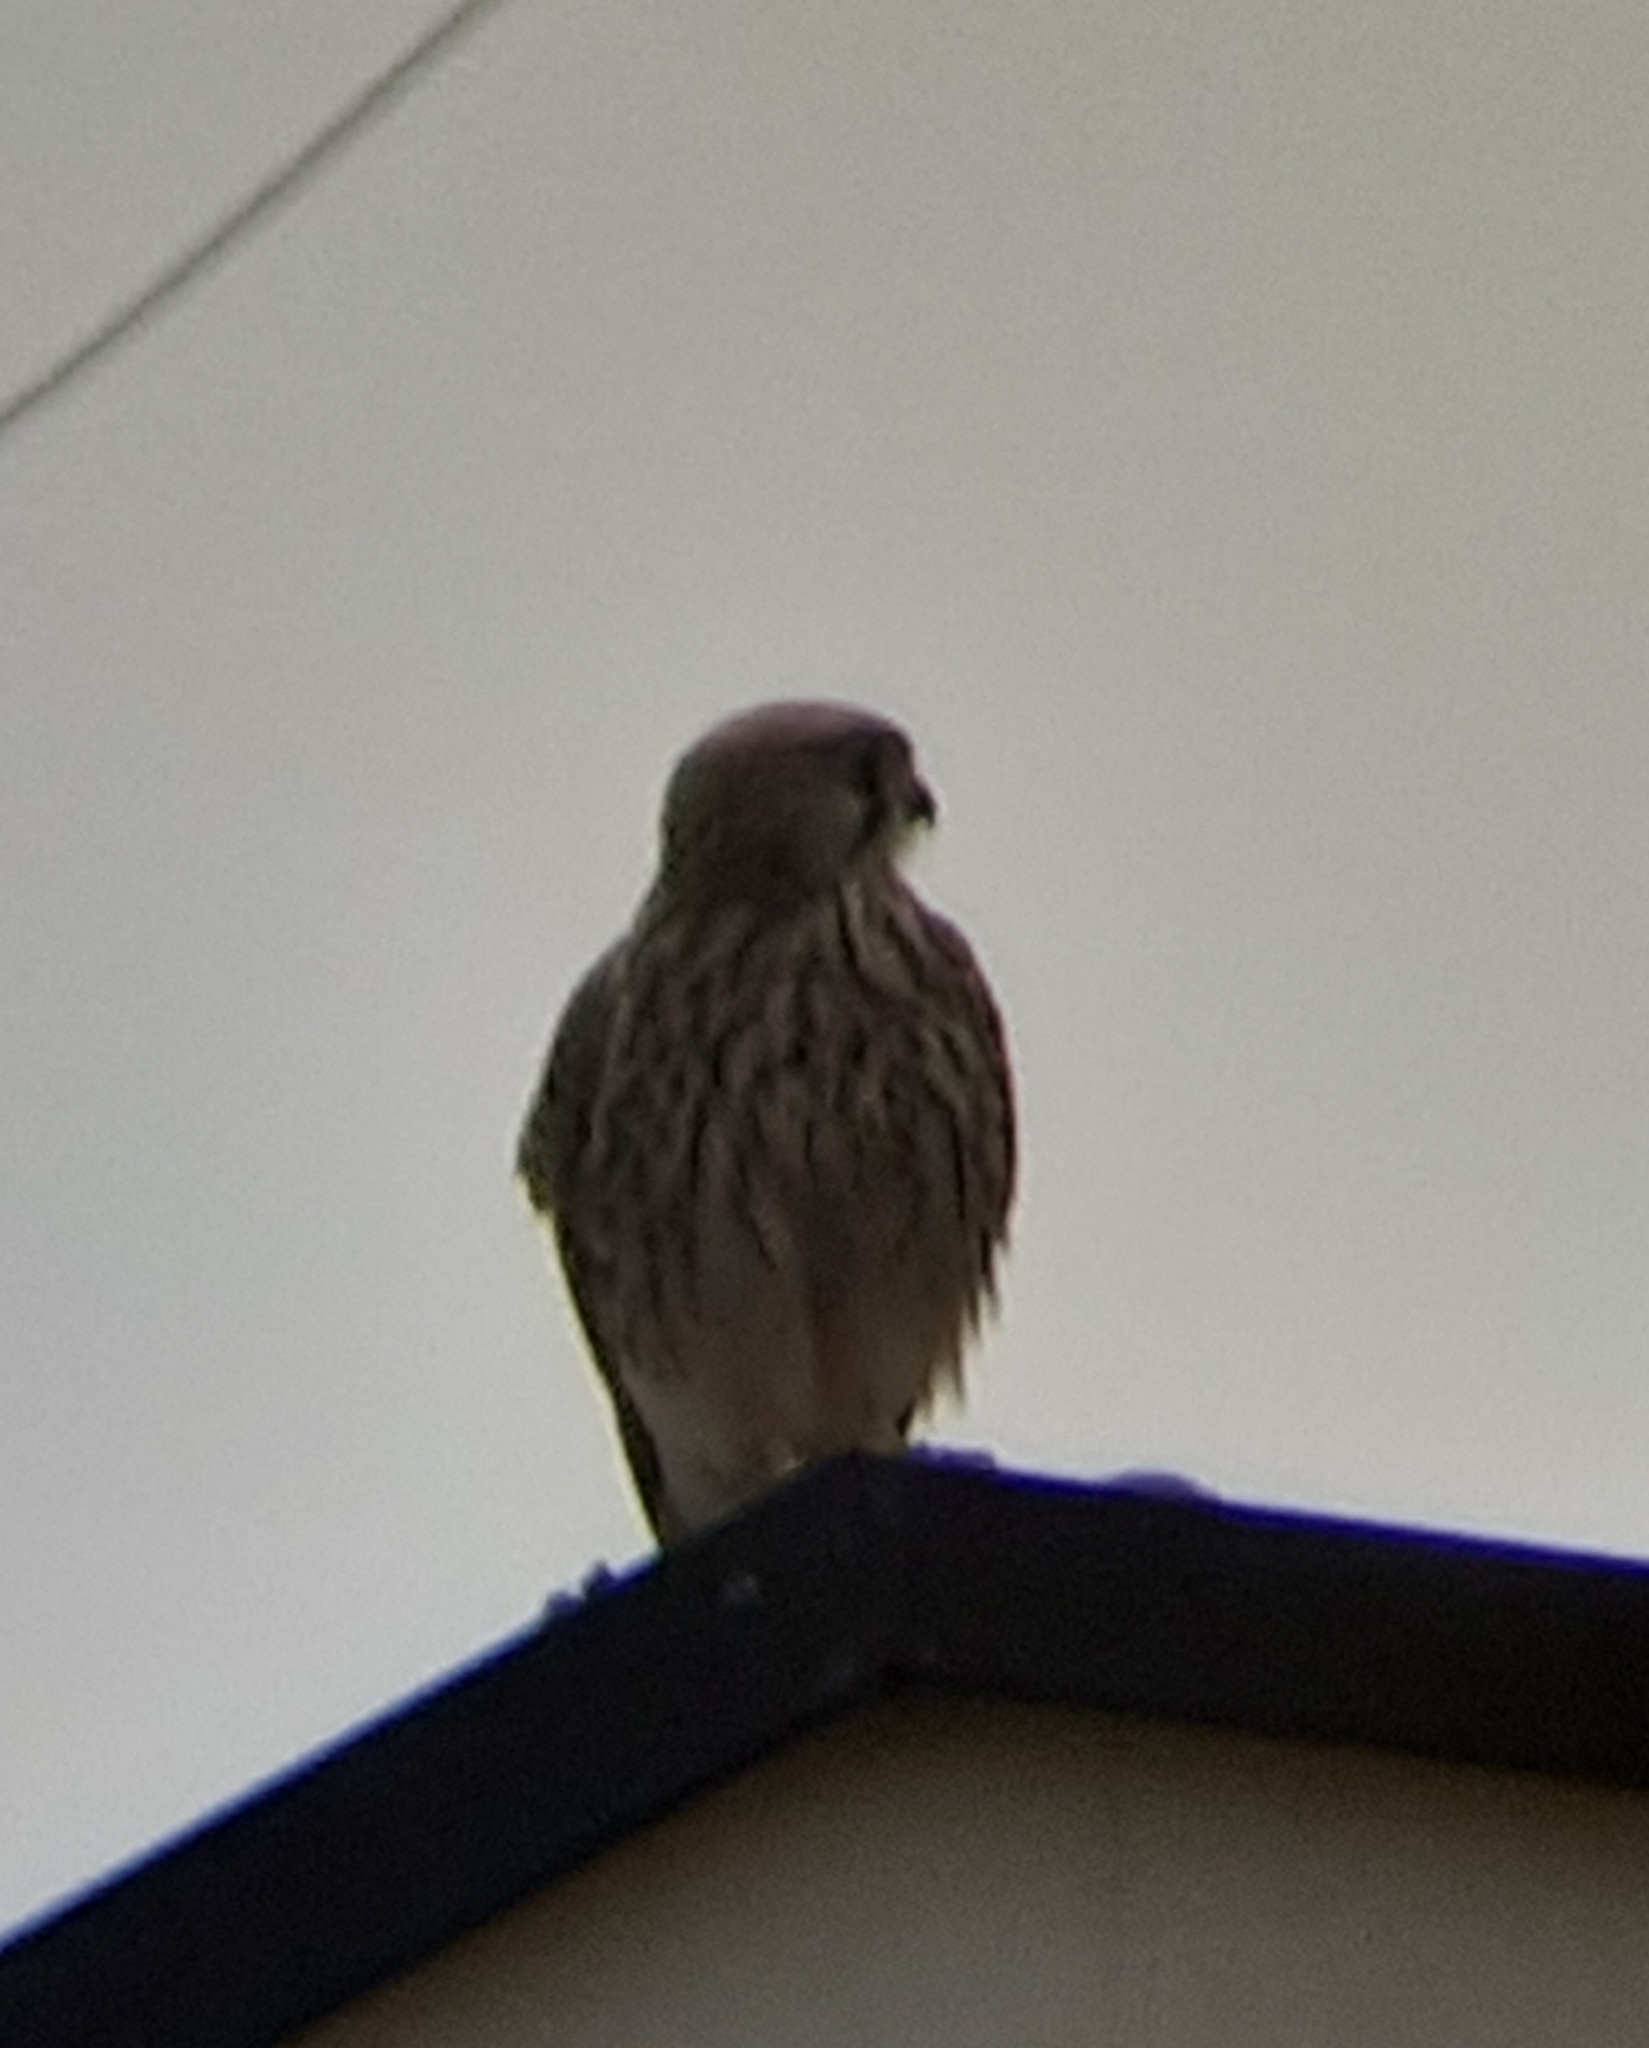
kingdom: Animalia
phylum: Chordata
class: Aves
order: Falconiformes
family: Falconidae
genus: Falco
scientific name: Falco tinnunculus
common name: Common kestrel
